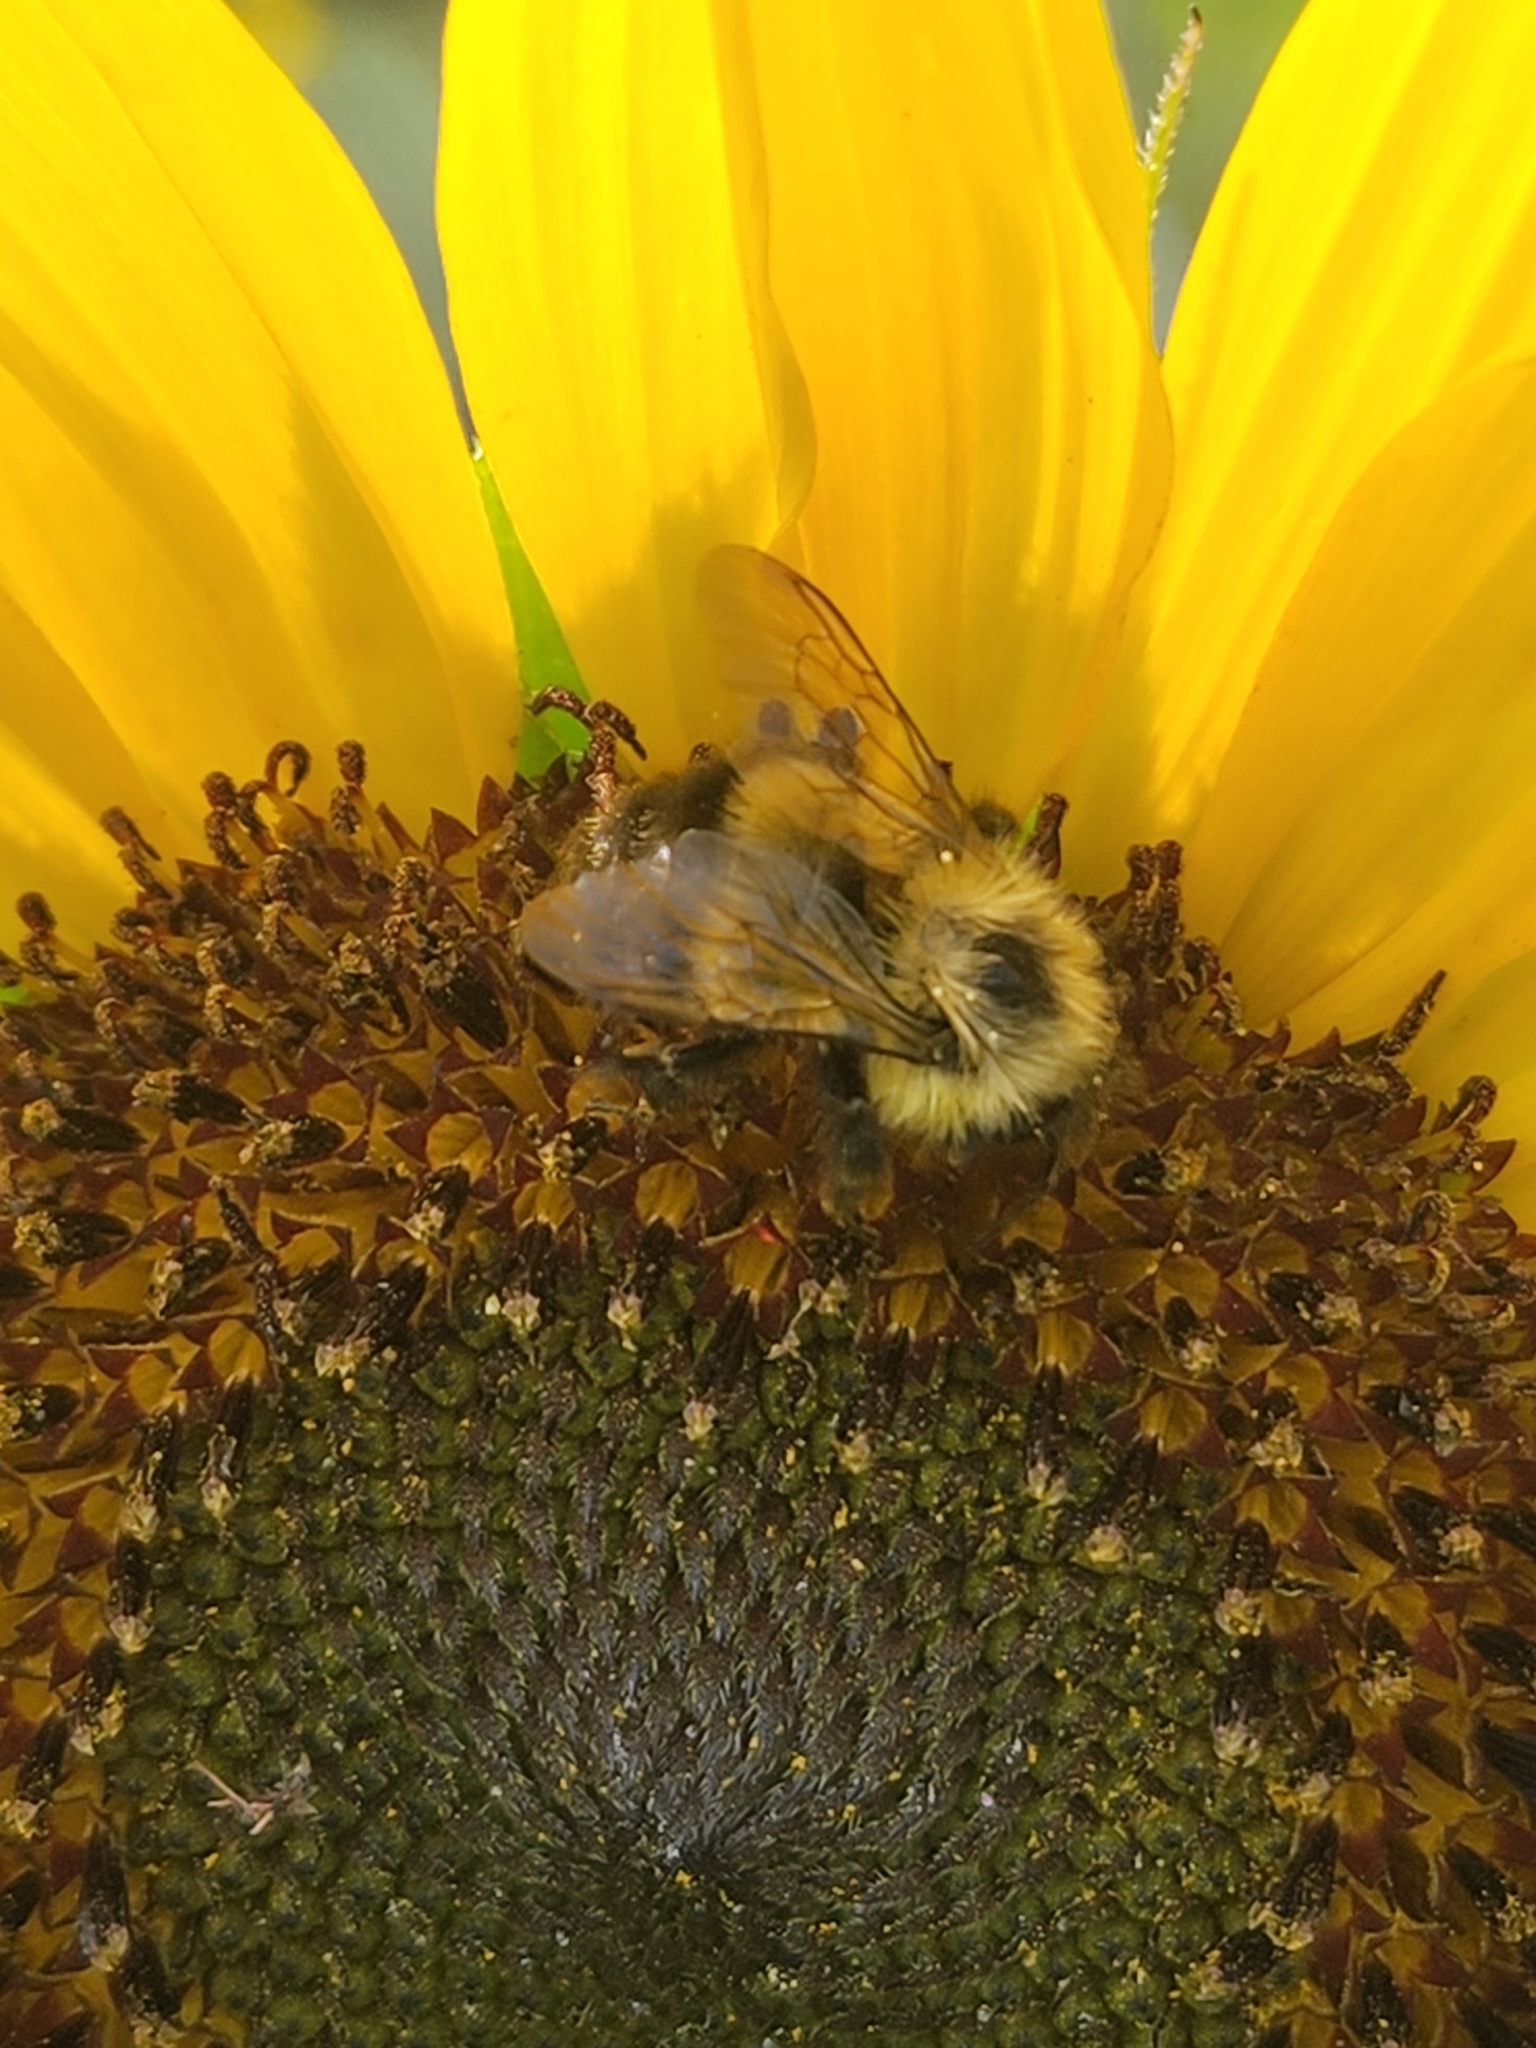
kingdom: Animalia
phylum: Arthropoda
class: Insecta
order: Hymenoptera
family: Apidae
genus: Pyrobombus
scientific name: Pyrobombus
